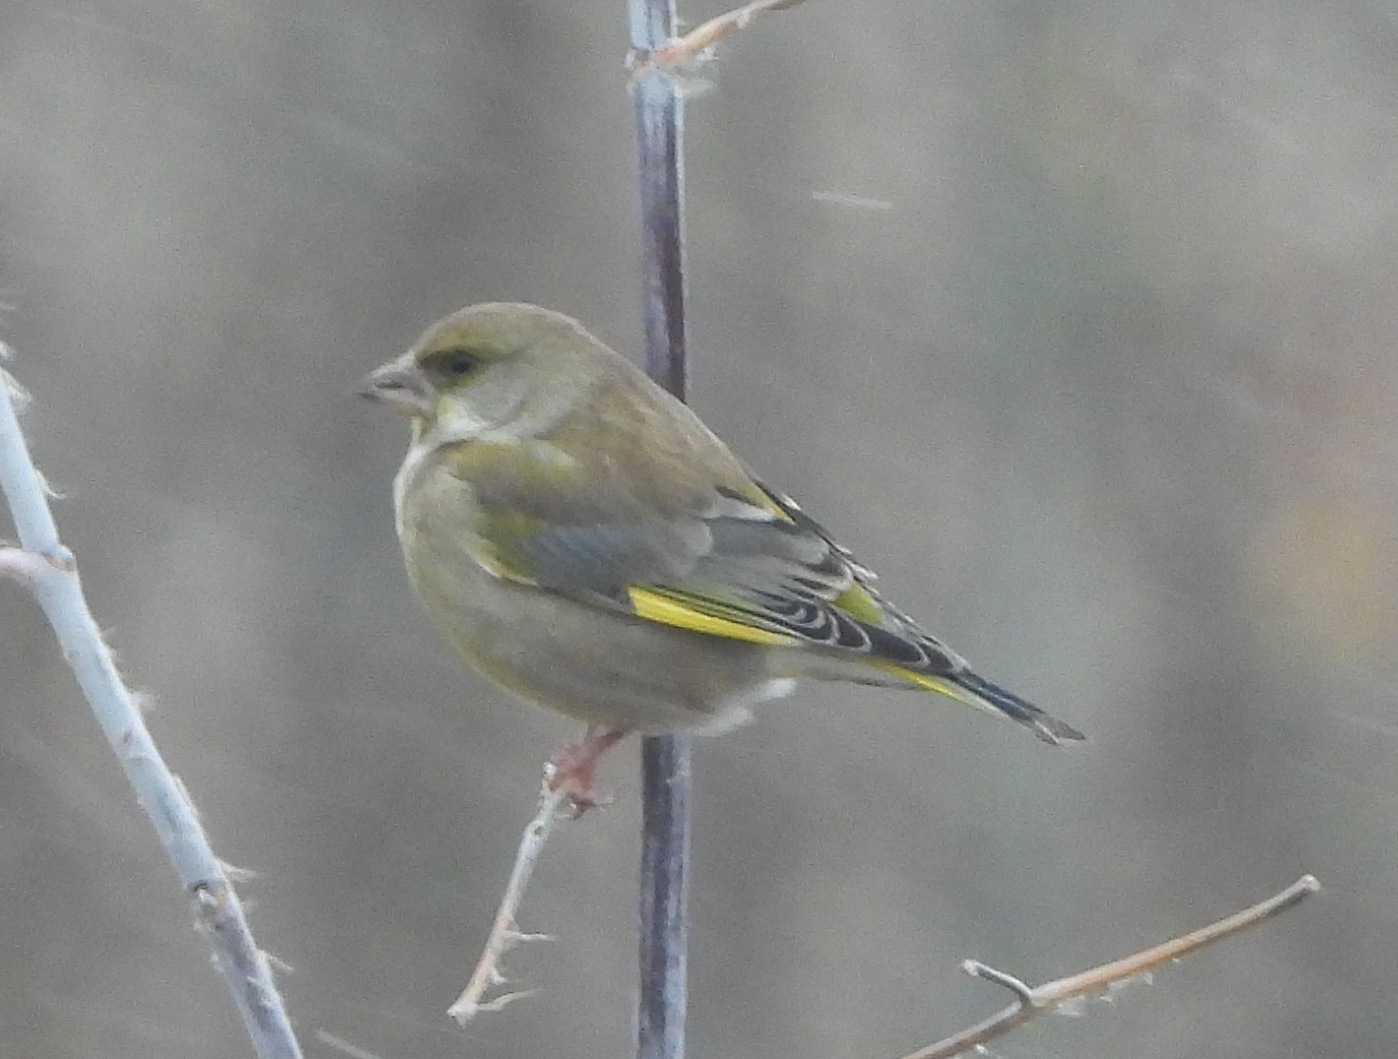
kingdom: Plantae
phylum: Tracheophyta
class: Liliopsida
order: Poales
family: Poaceae
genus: Chloris
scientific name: Chloris chloris
